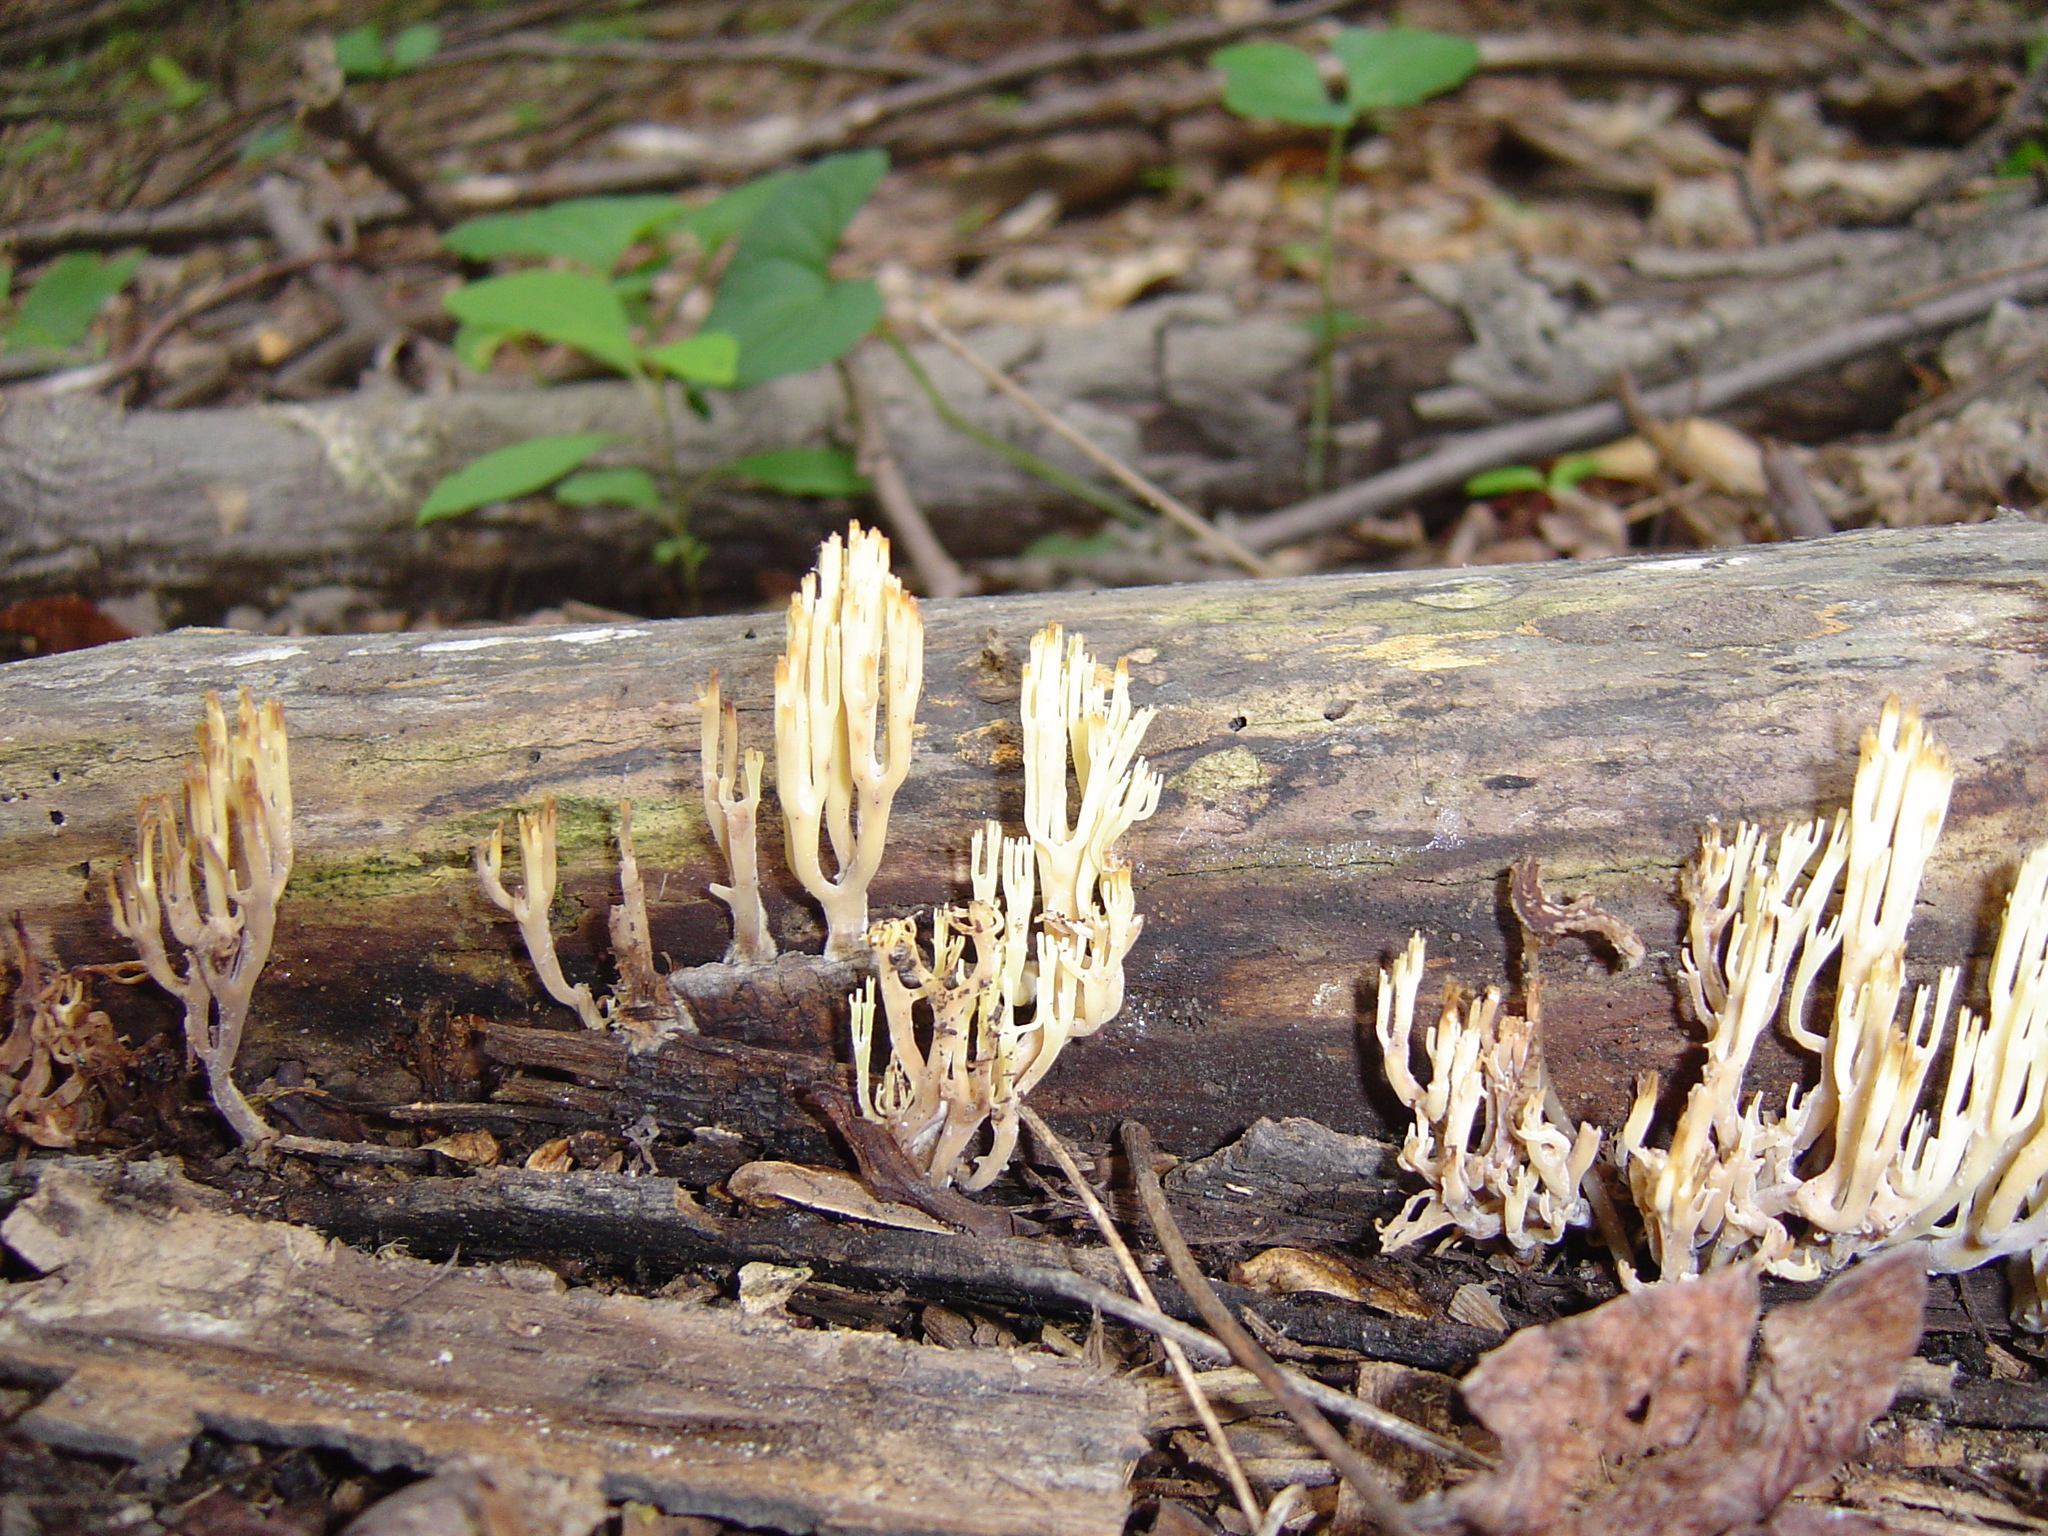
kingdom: Fungi
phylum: Basidiomycota
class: Agaricomycetes
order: Russulales
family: Auriscalpiaceae
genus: Artomyces
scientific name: Artomyces pyxidatus
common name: Crown-tipped coral fungus
